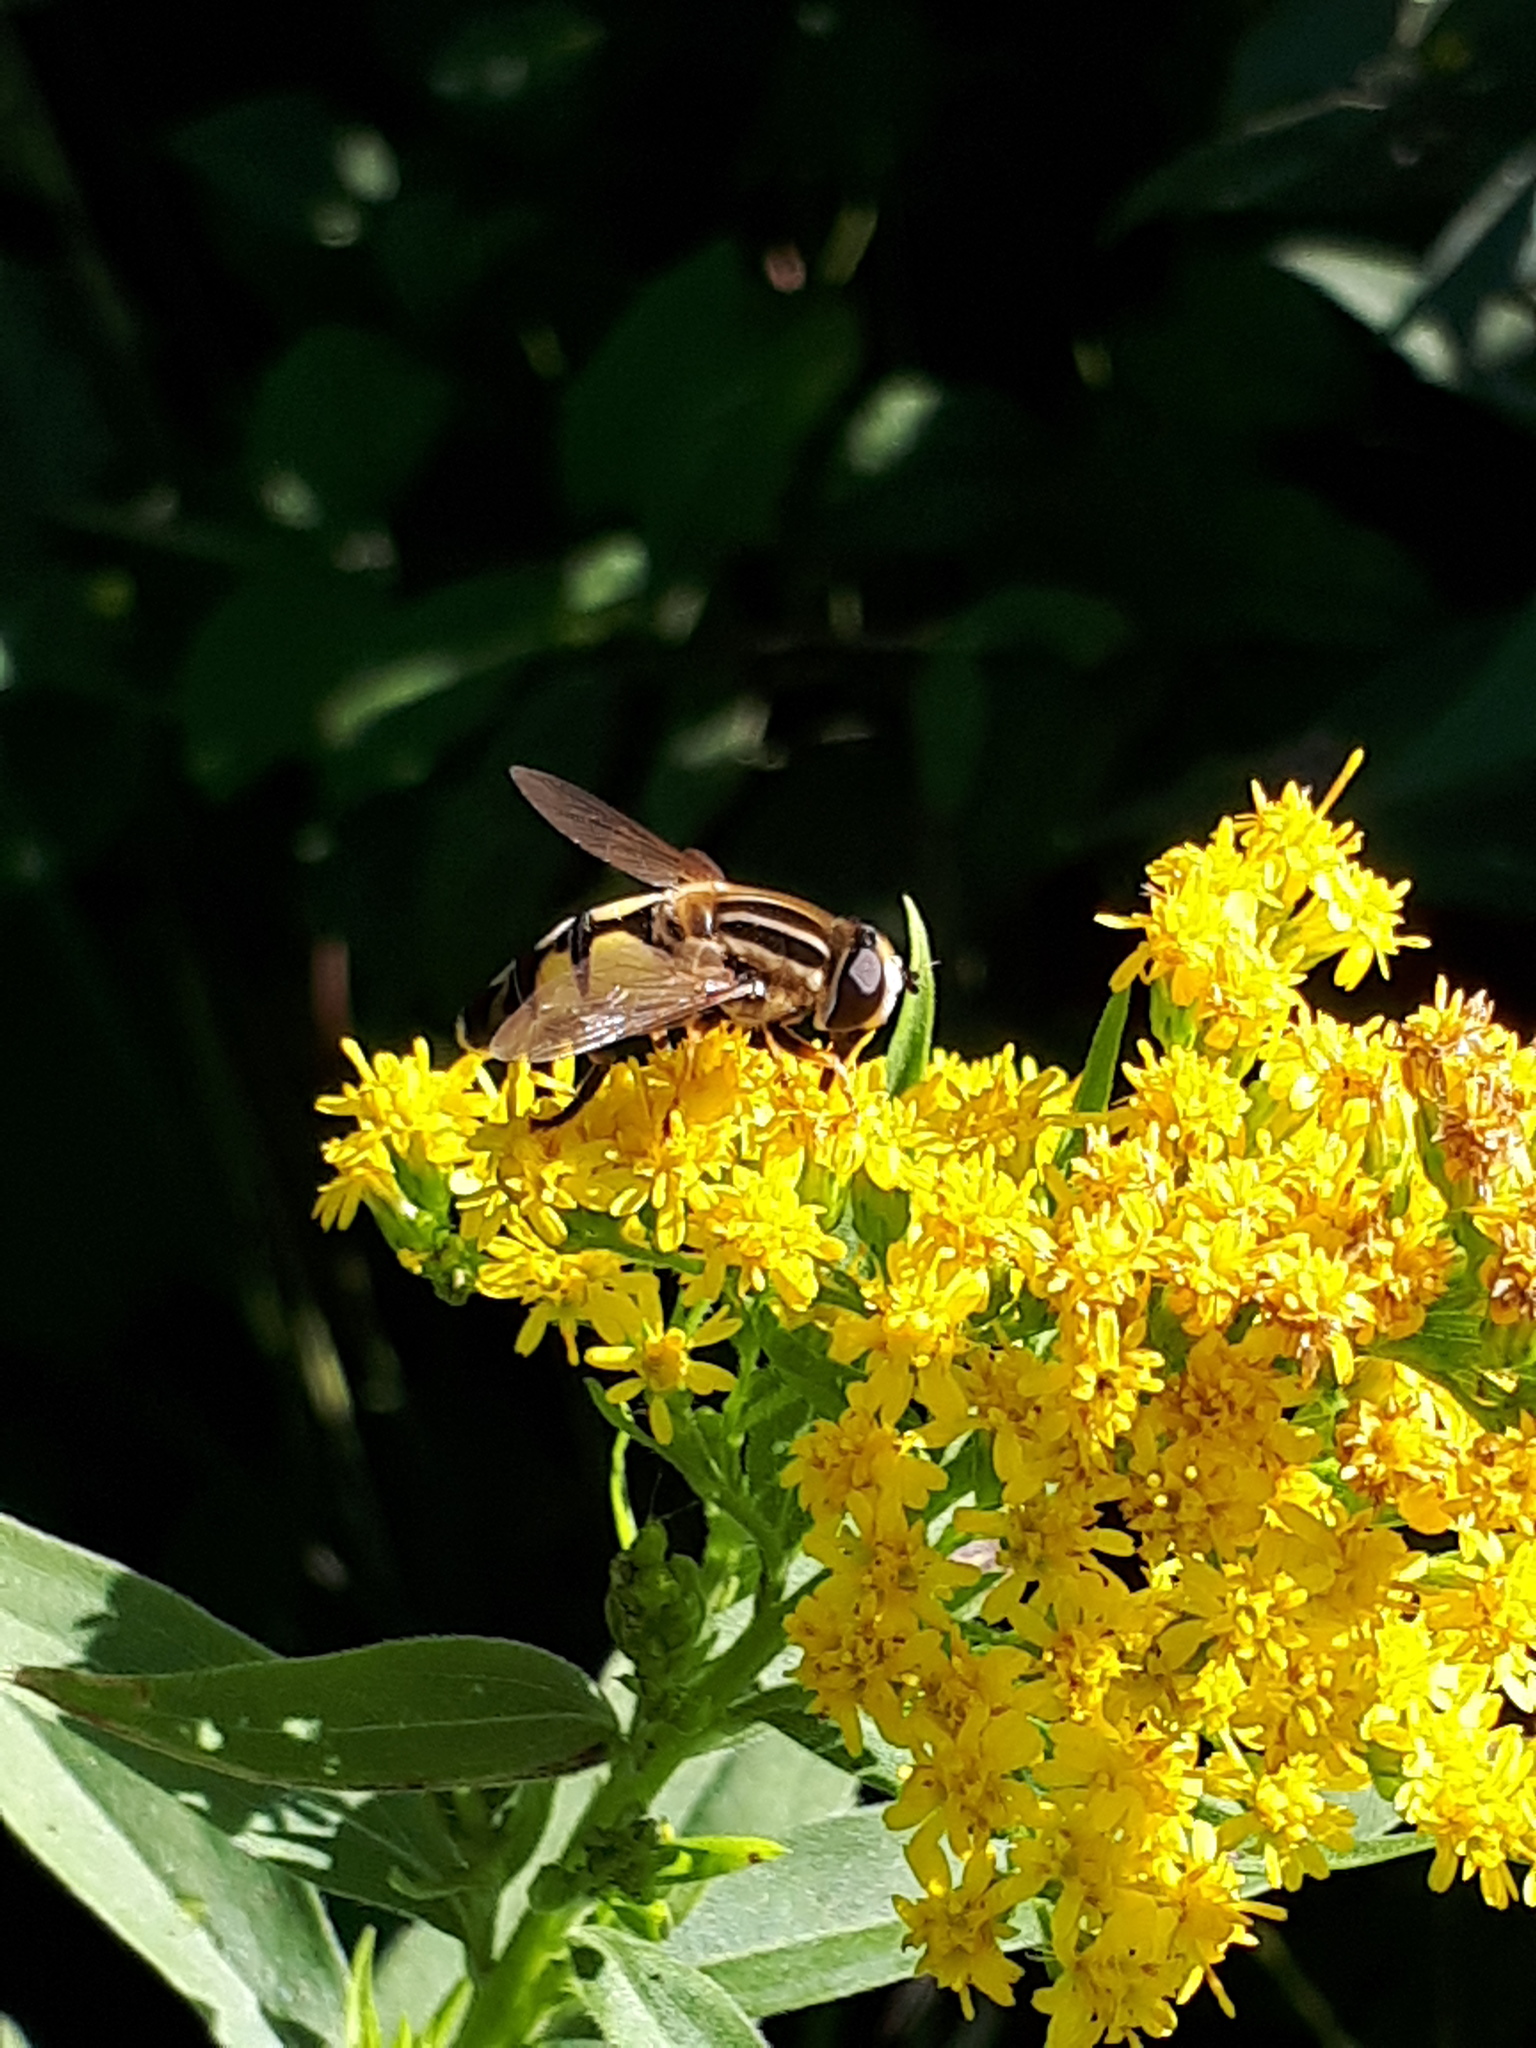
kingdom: Animalia
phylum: Arthropoda
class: Insecta
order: Diptera
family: Syrphidae
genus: Helophilus
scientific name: Helophilus trivittatus
